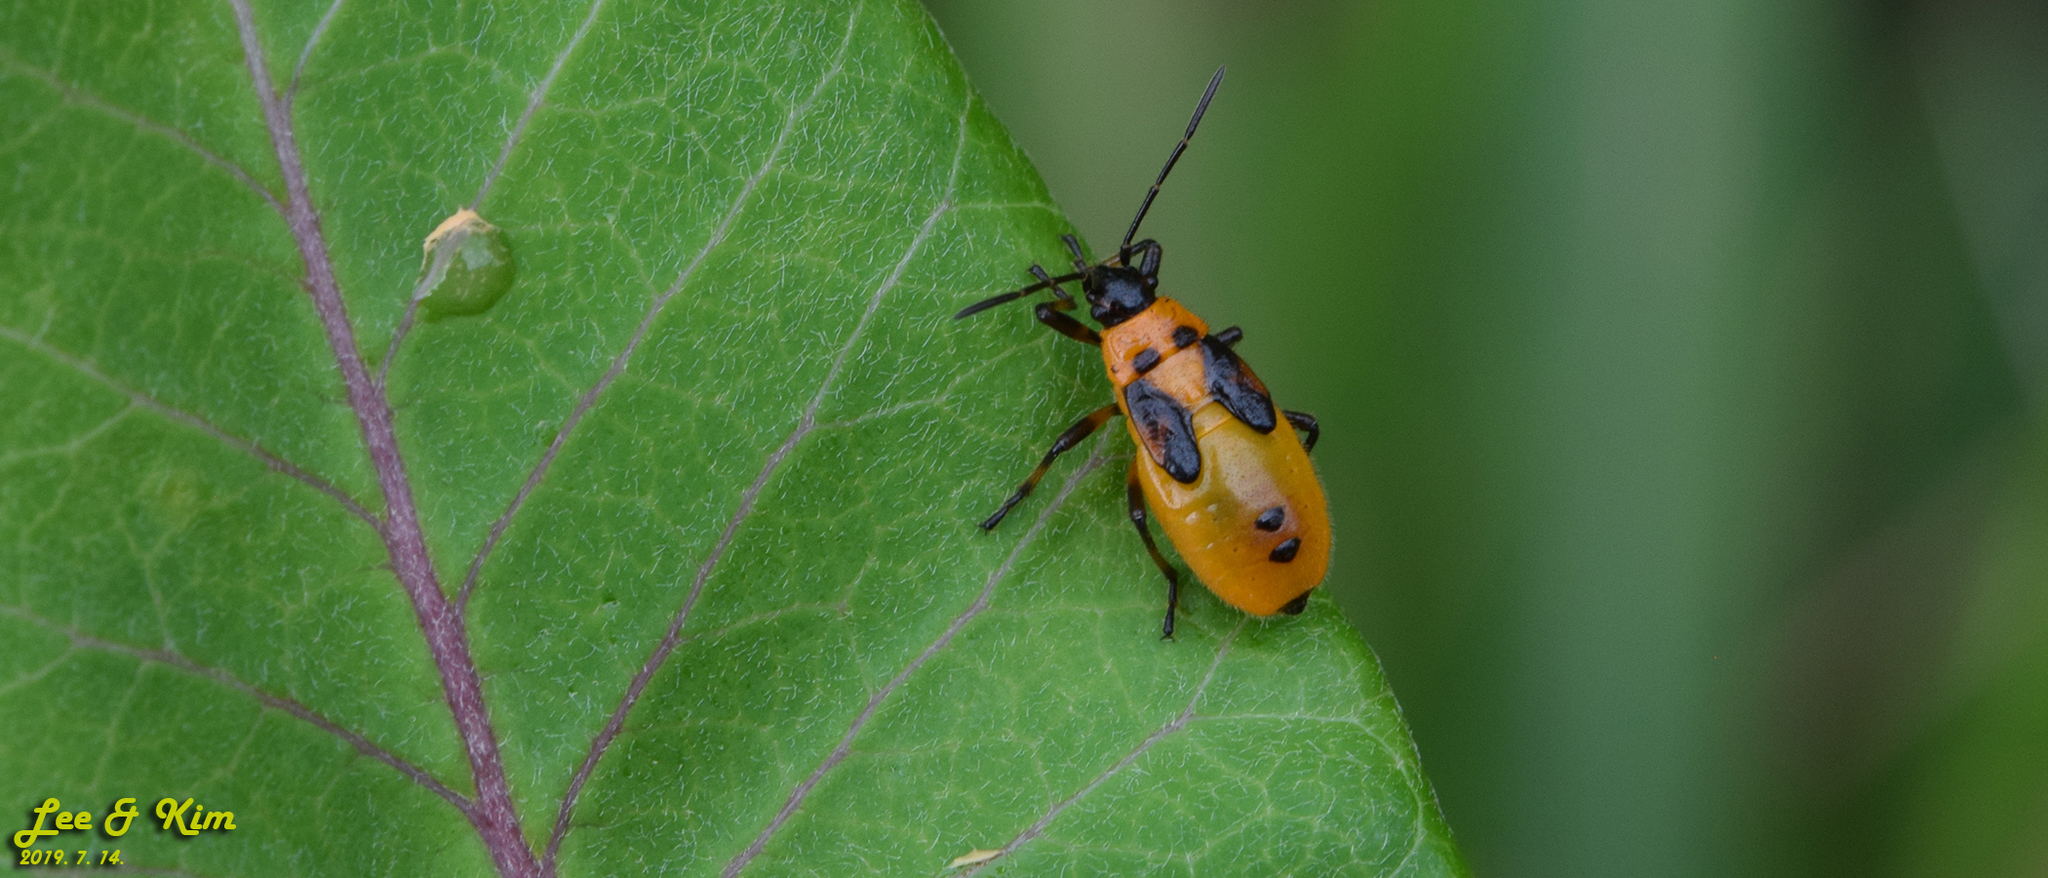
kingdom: Animalia
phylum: Arthropoda
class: Insecta
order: Hemiptera
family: Lygaeidae
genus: Tropidothorax
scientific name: Tropidothorax cruciger
